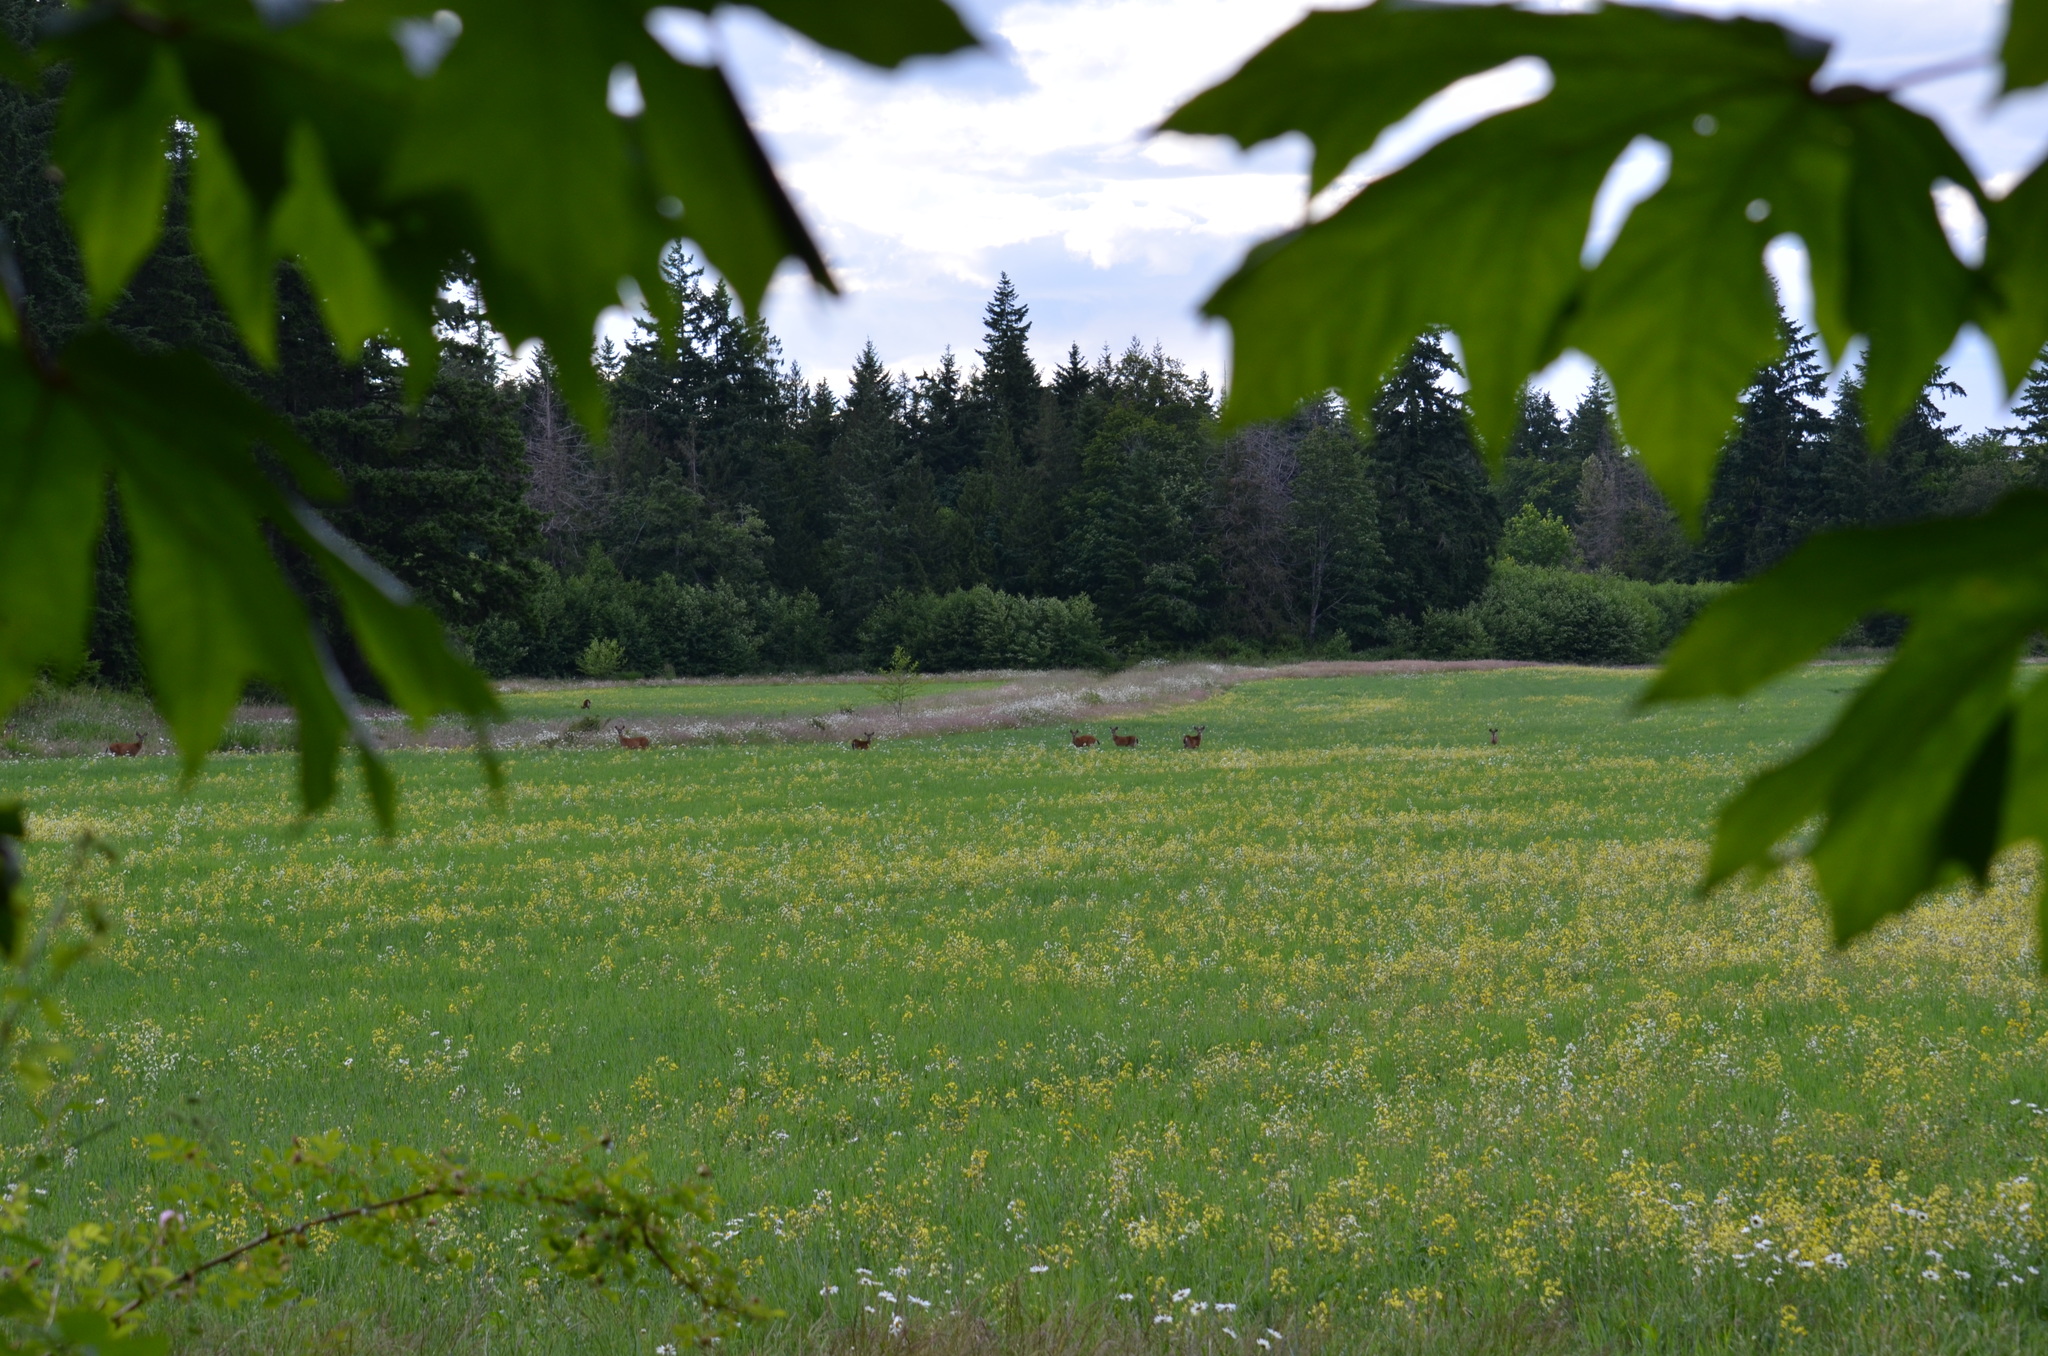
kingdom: Plantae
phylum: Tracheophyta
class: Magnoliopsida
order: Sapindales
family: Sapindaceae
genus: Acer
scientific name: Acer macrophyllum
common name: Oregon maple
